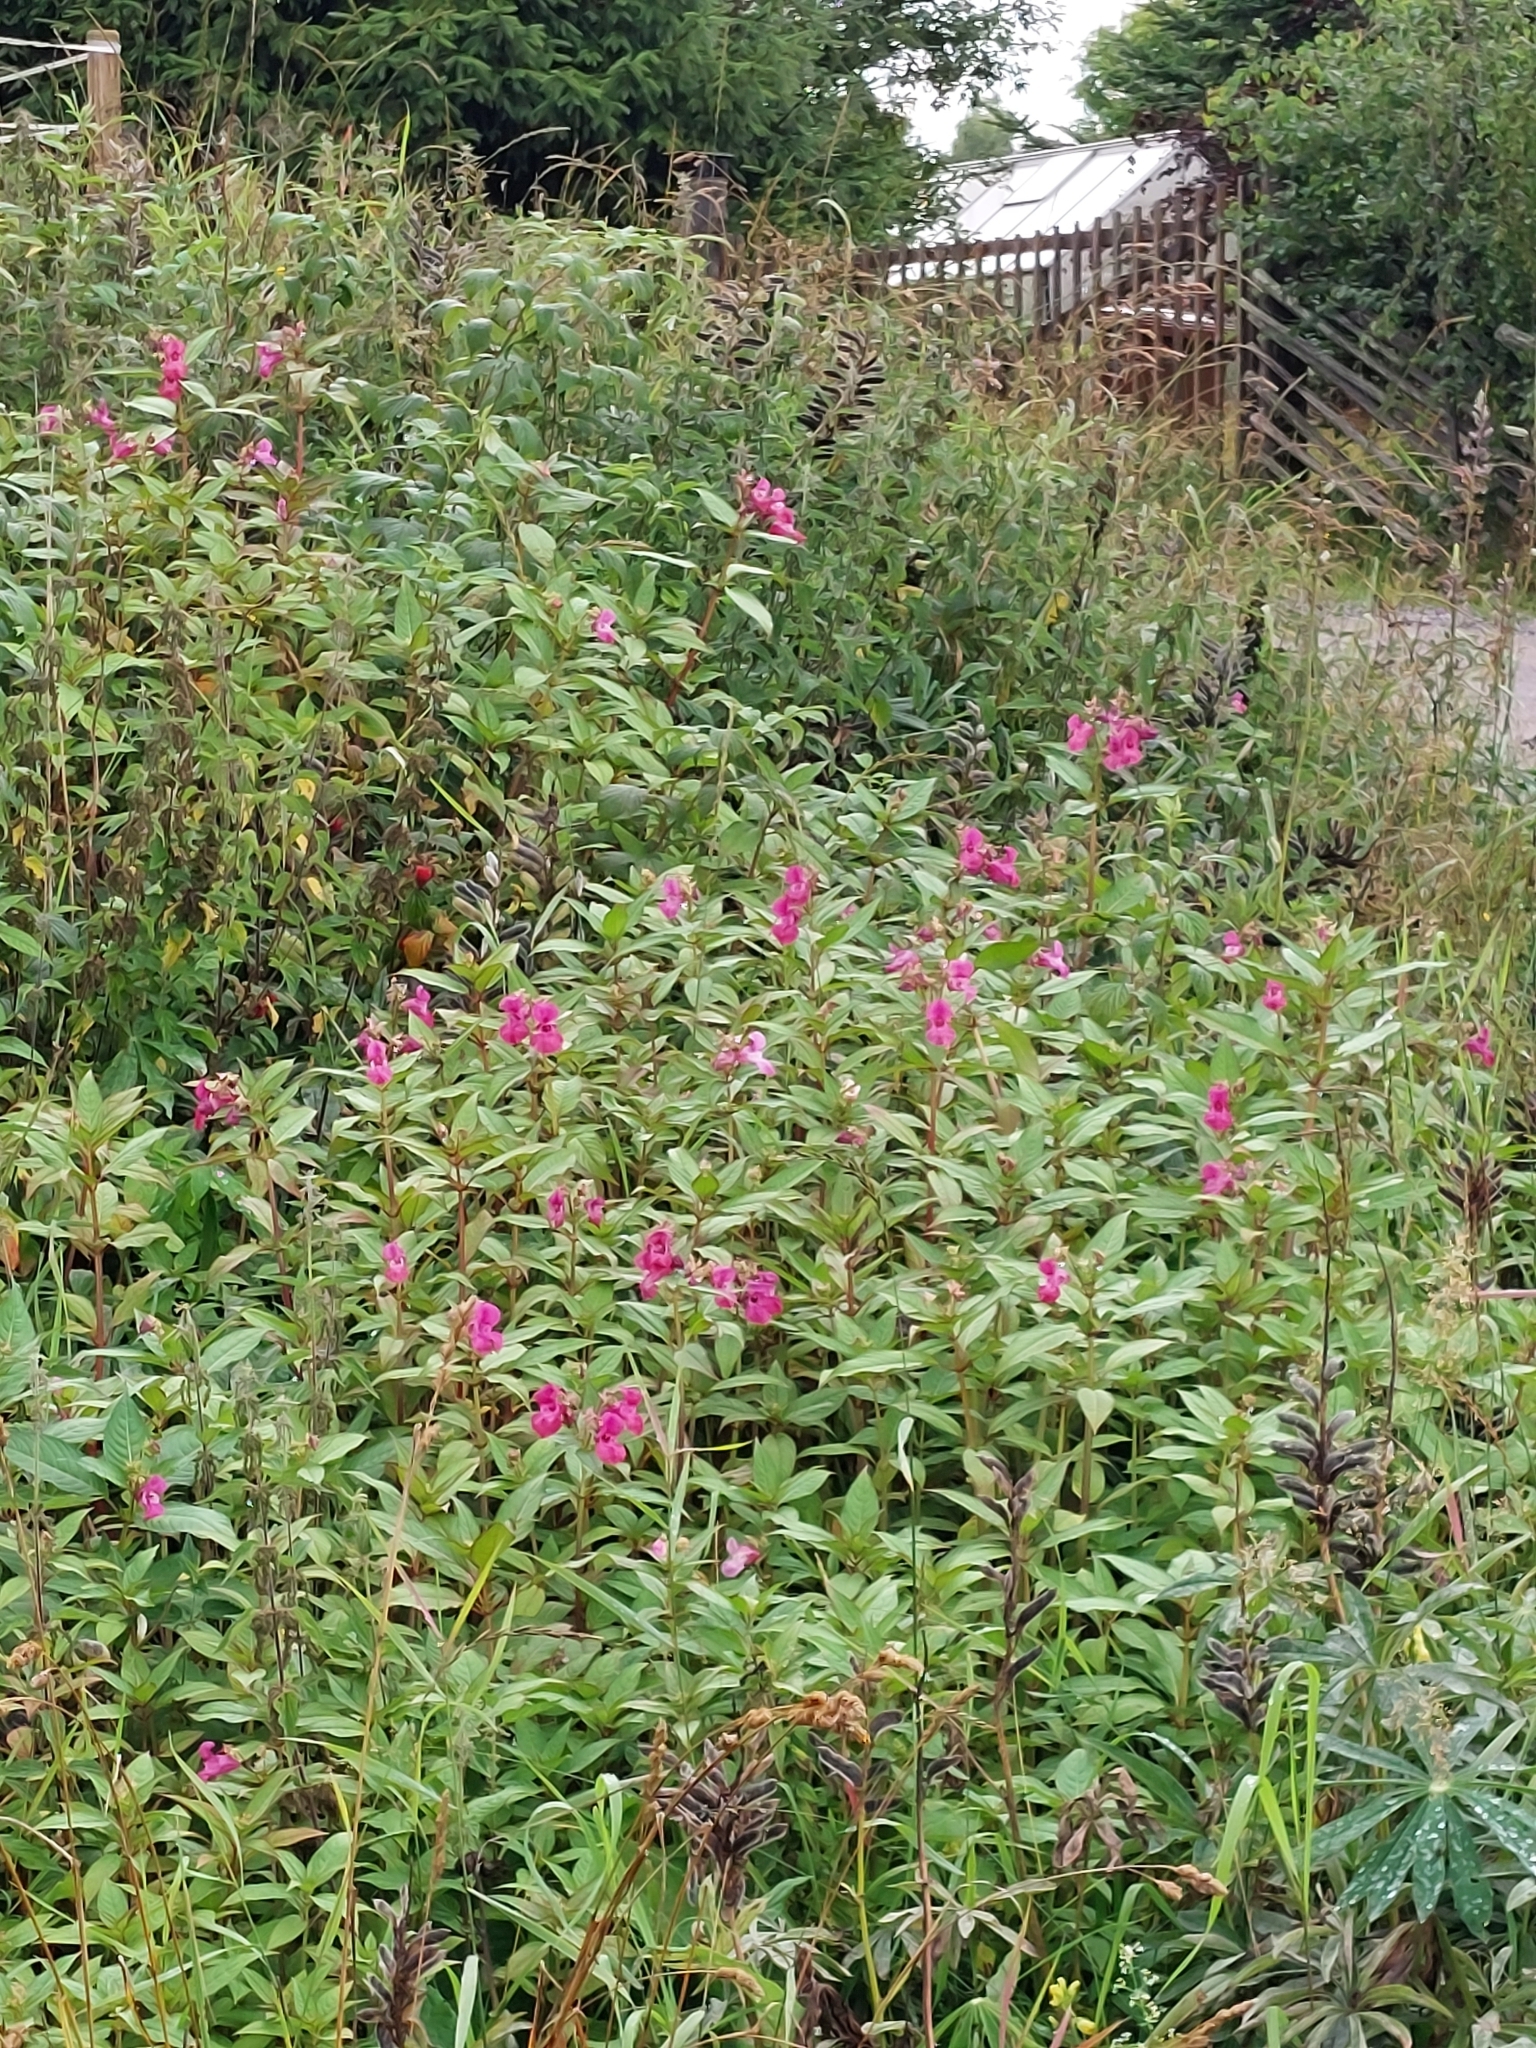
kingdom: Plantae
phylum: Tracheophyta
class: Magnoliopsida
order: Ericales
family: Balsaminaceae
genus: Impatiens
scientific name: Impatiens glandulifera
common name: Himalayan balsam
